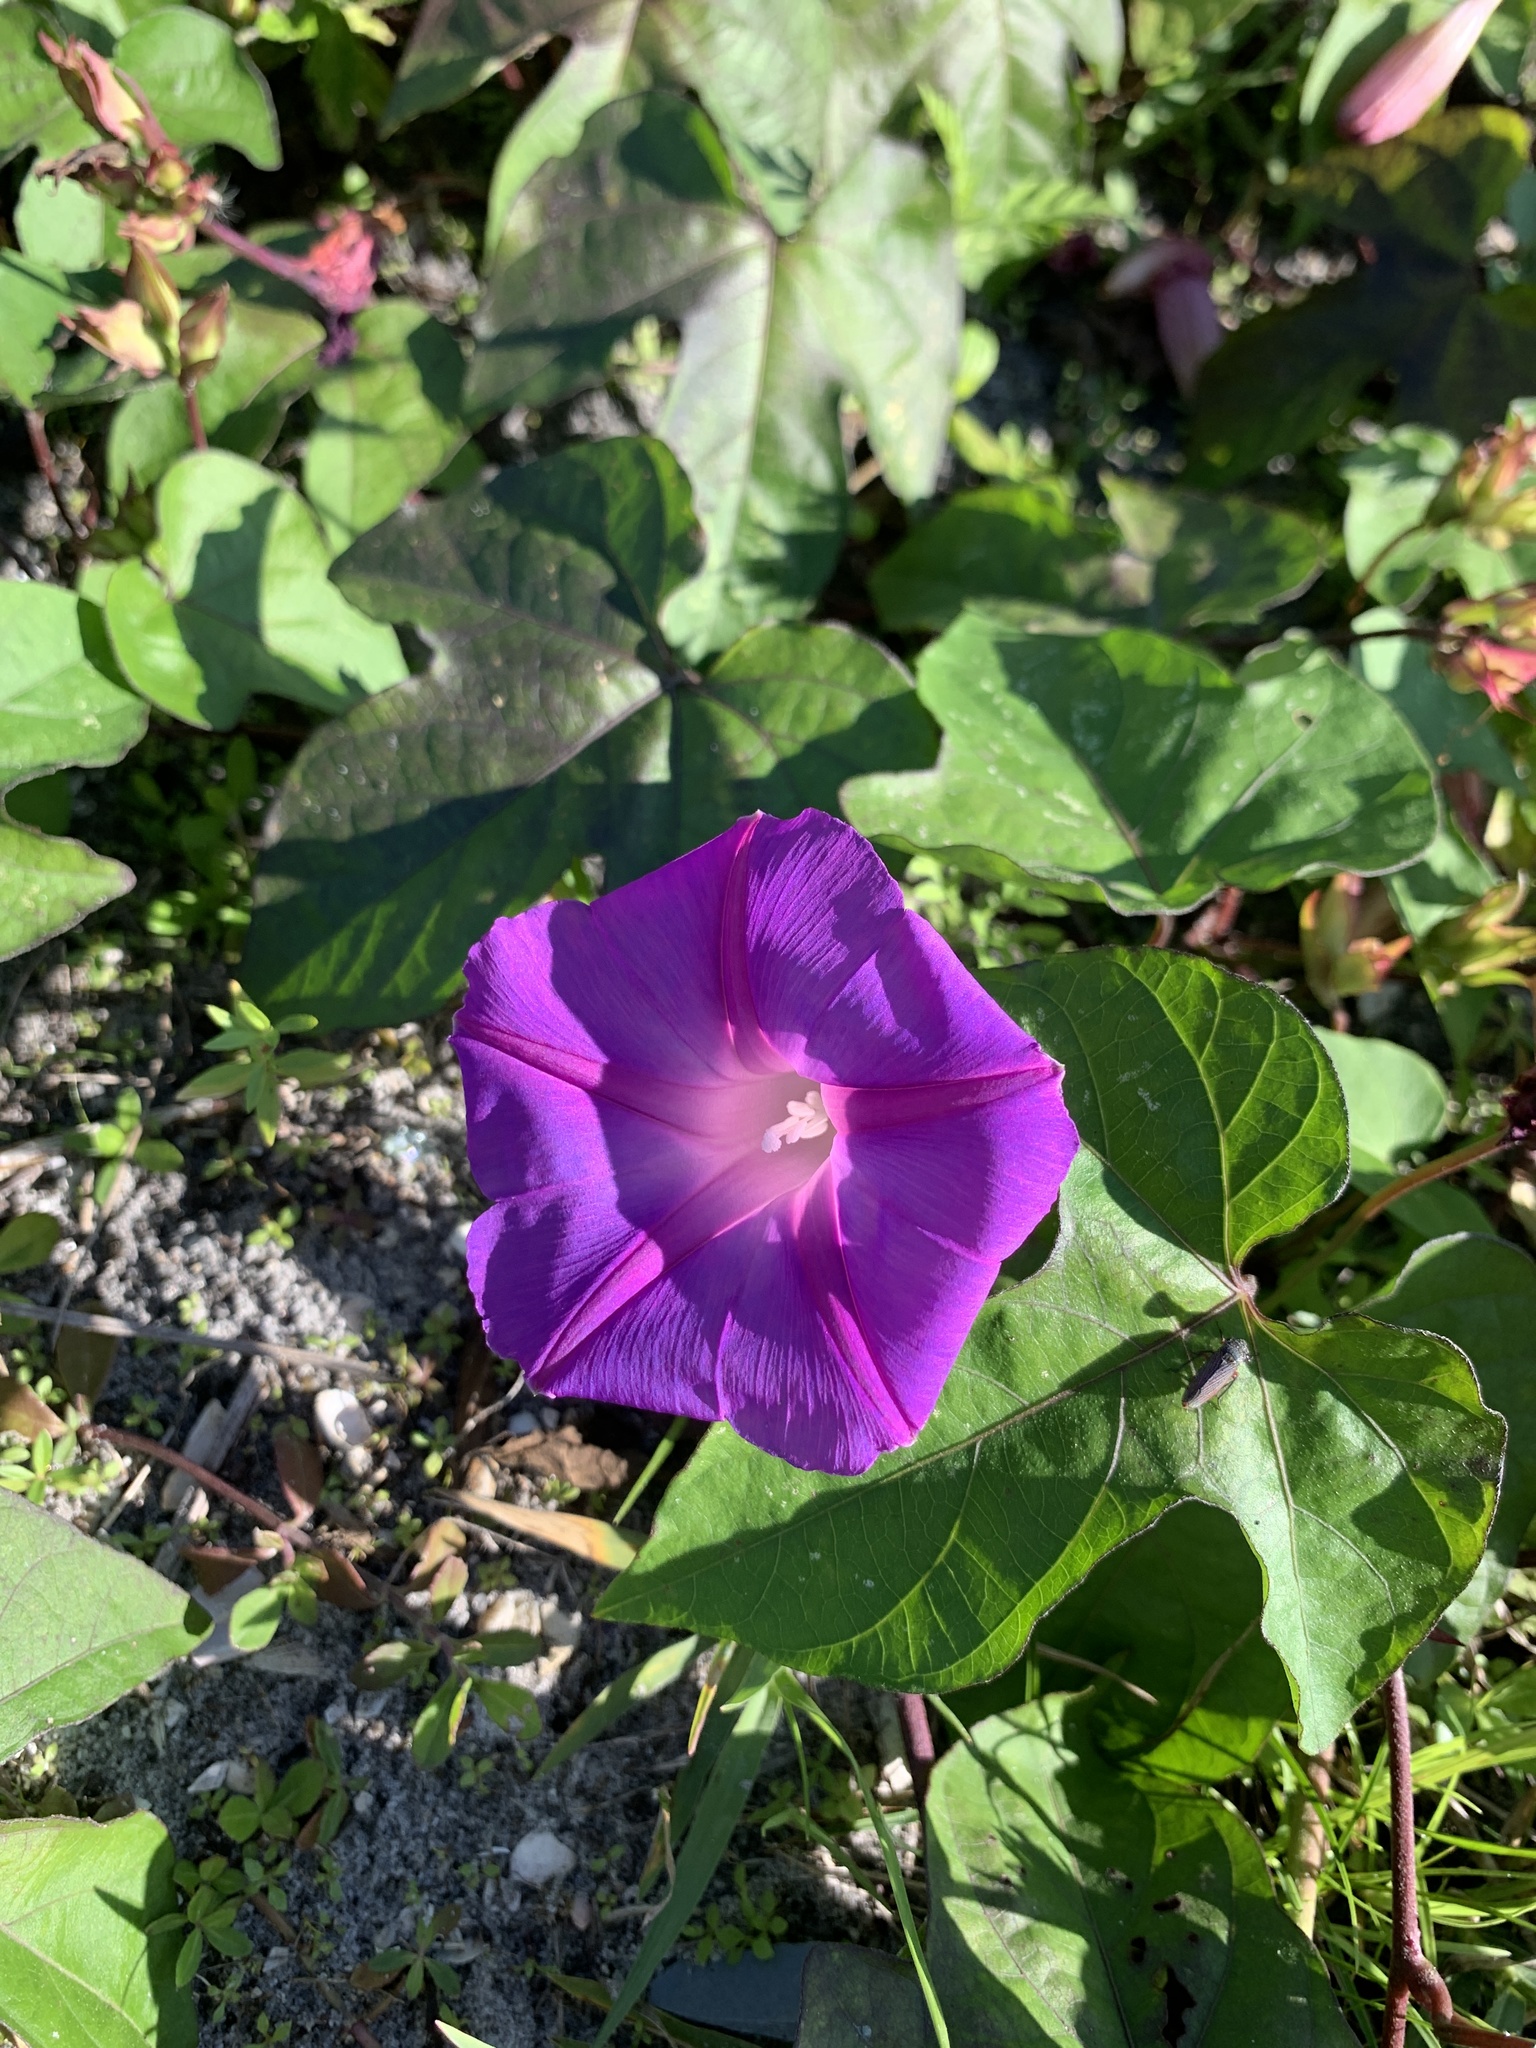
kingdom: Plantae
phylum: Tracheophyta
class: Magnoliopsida
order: Solanales
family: Convolvulaceae
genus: Ipomoea
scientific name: Ipomoea indica
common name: Blue dawnflower
